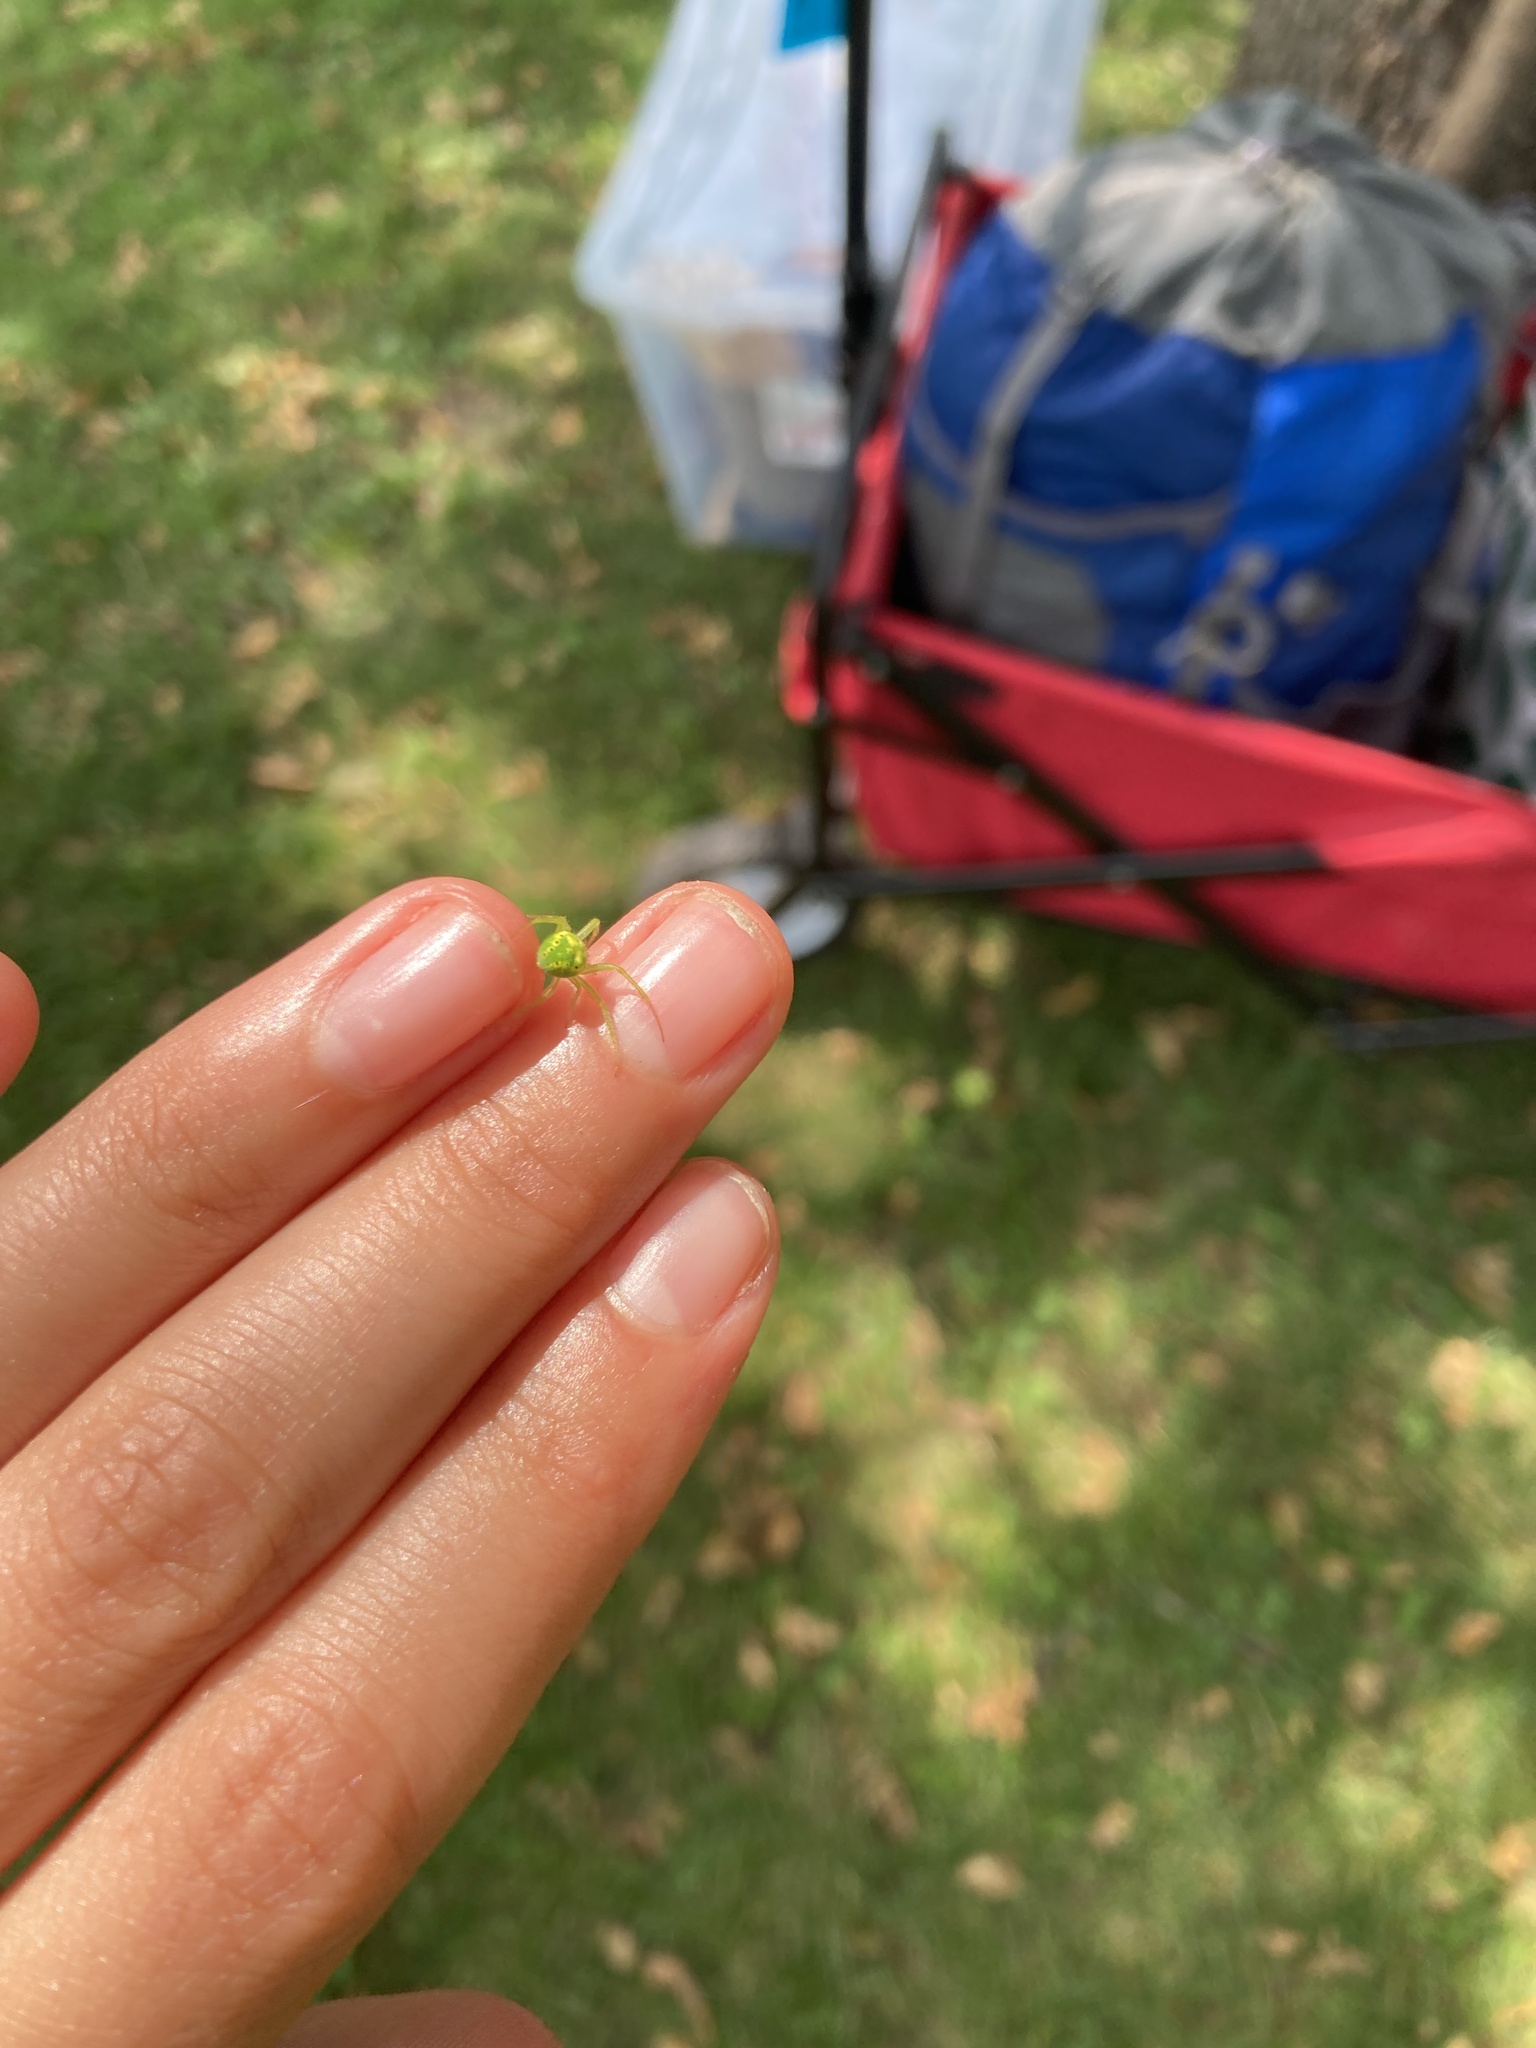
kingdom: Animalia
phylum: Arthropoda
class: Arachnida
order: Araneae
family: Araneidae
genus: Araneus
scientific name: Araneus cingulatus
